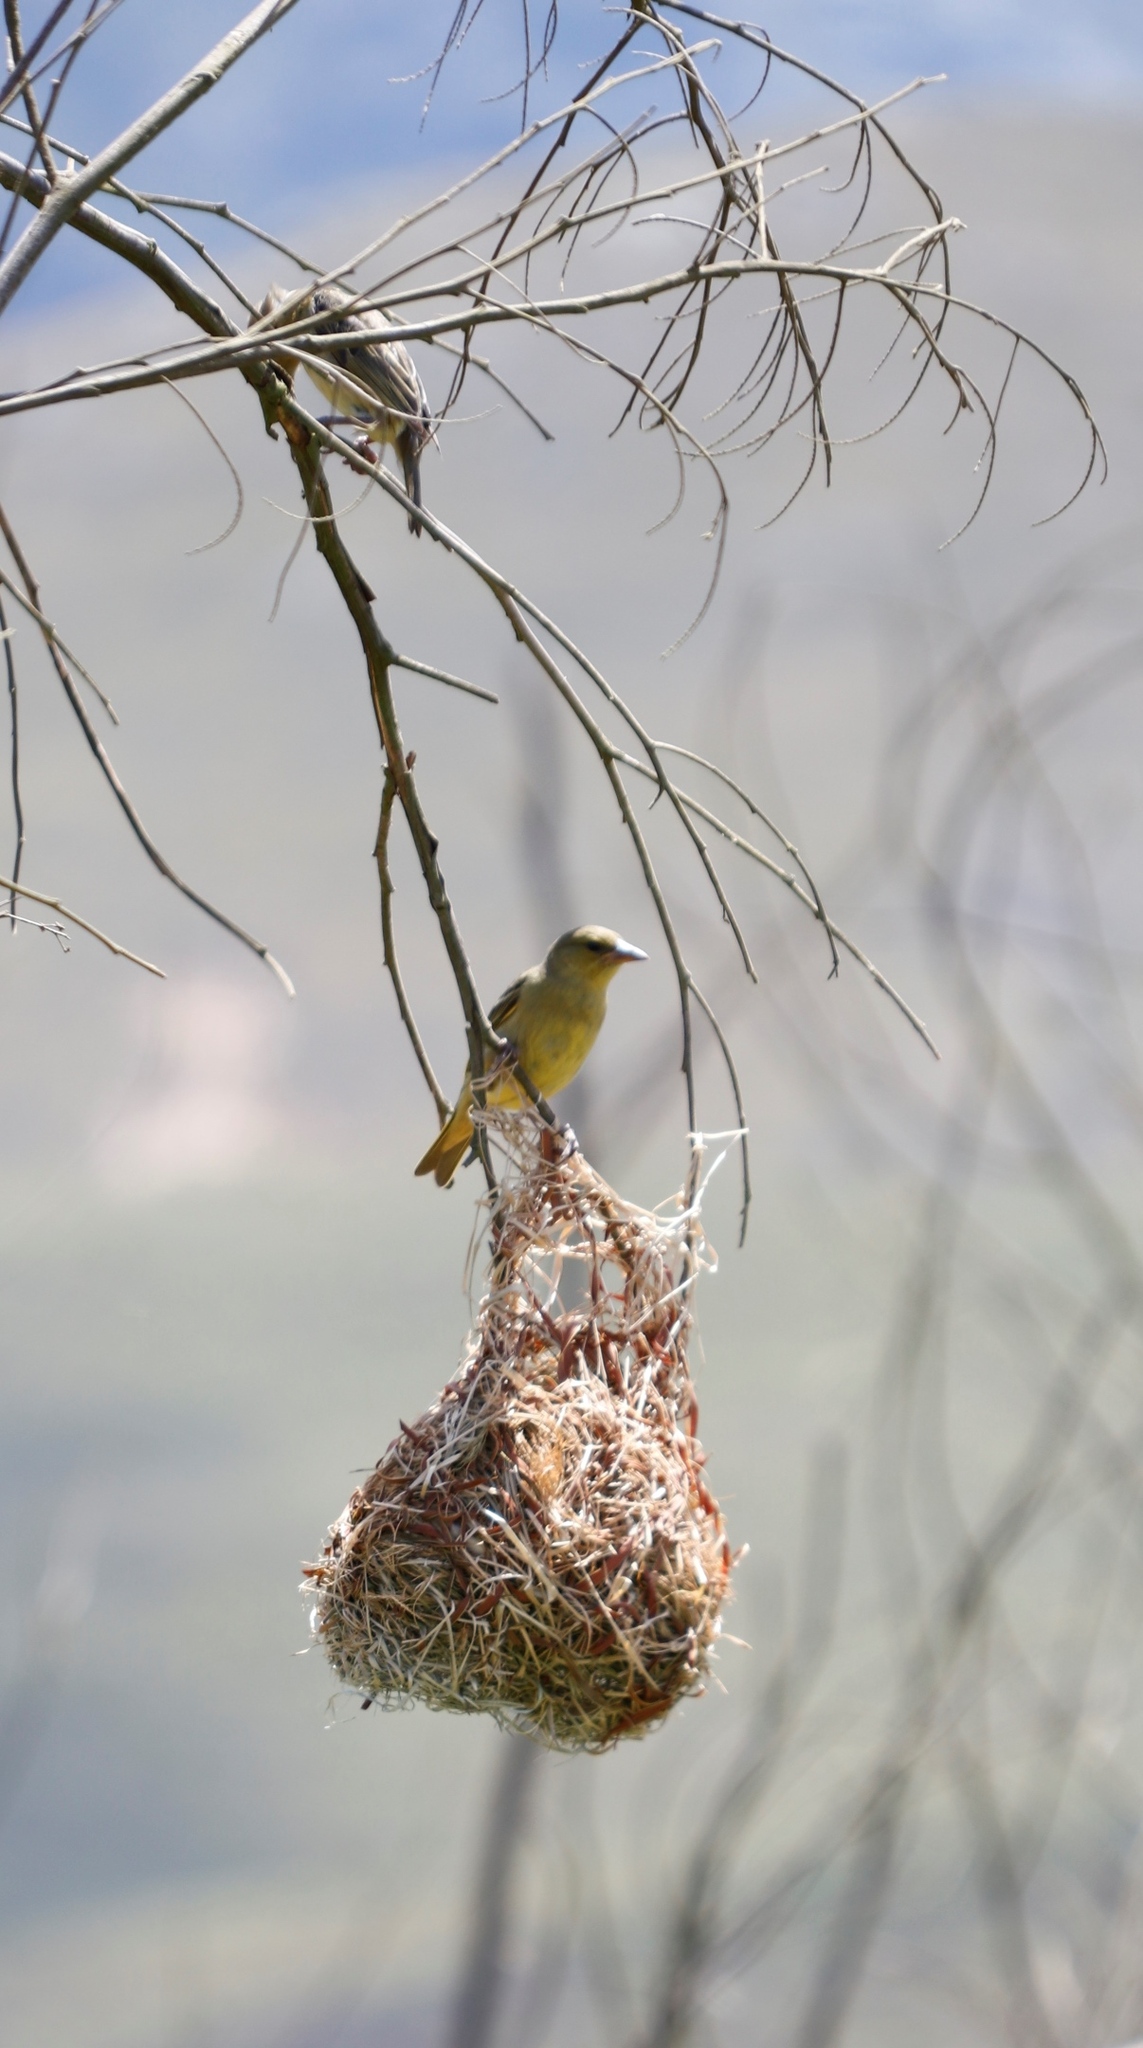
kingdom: Animalia
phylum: Chordata
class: Aves
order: Passeriformes
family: Ploceidae
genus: Ploceus
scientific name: Ploceus capensis
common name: Cape weaver
